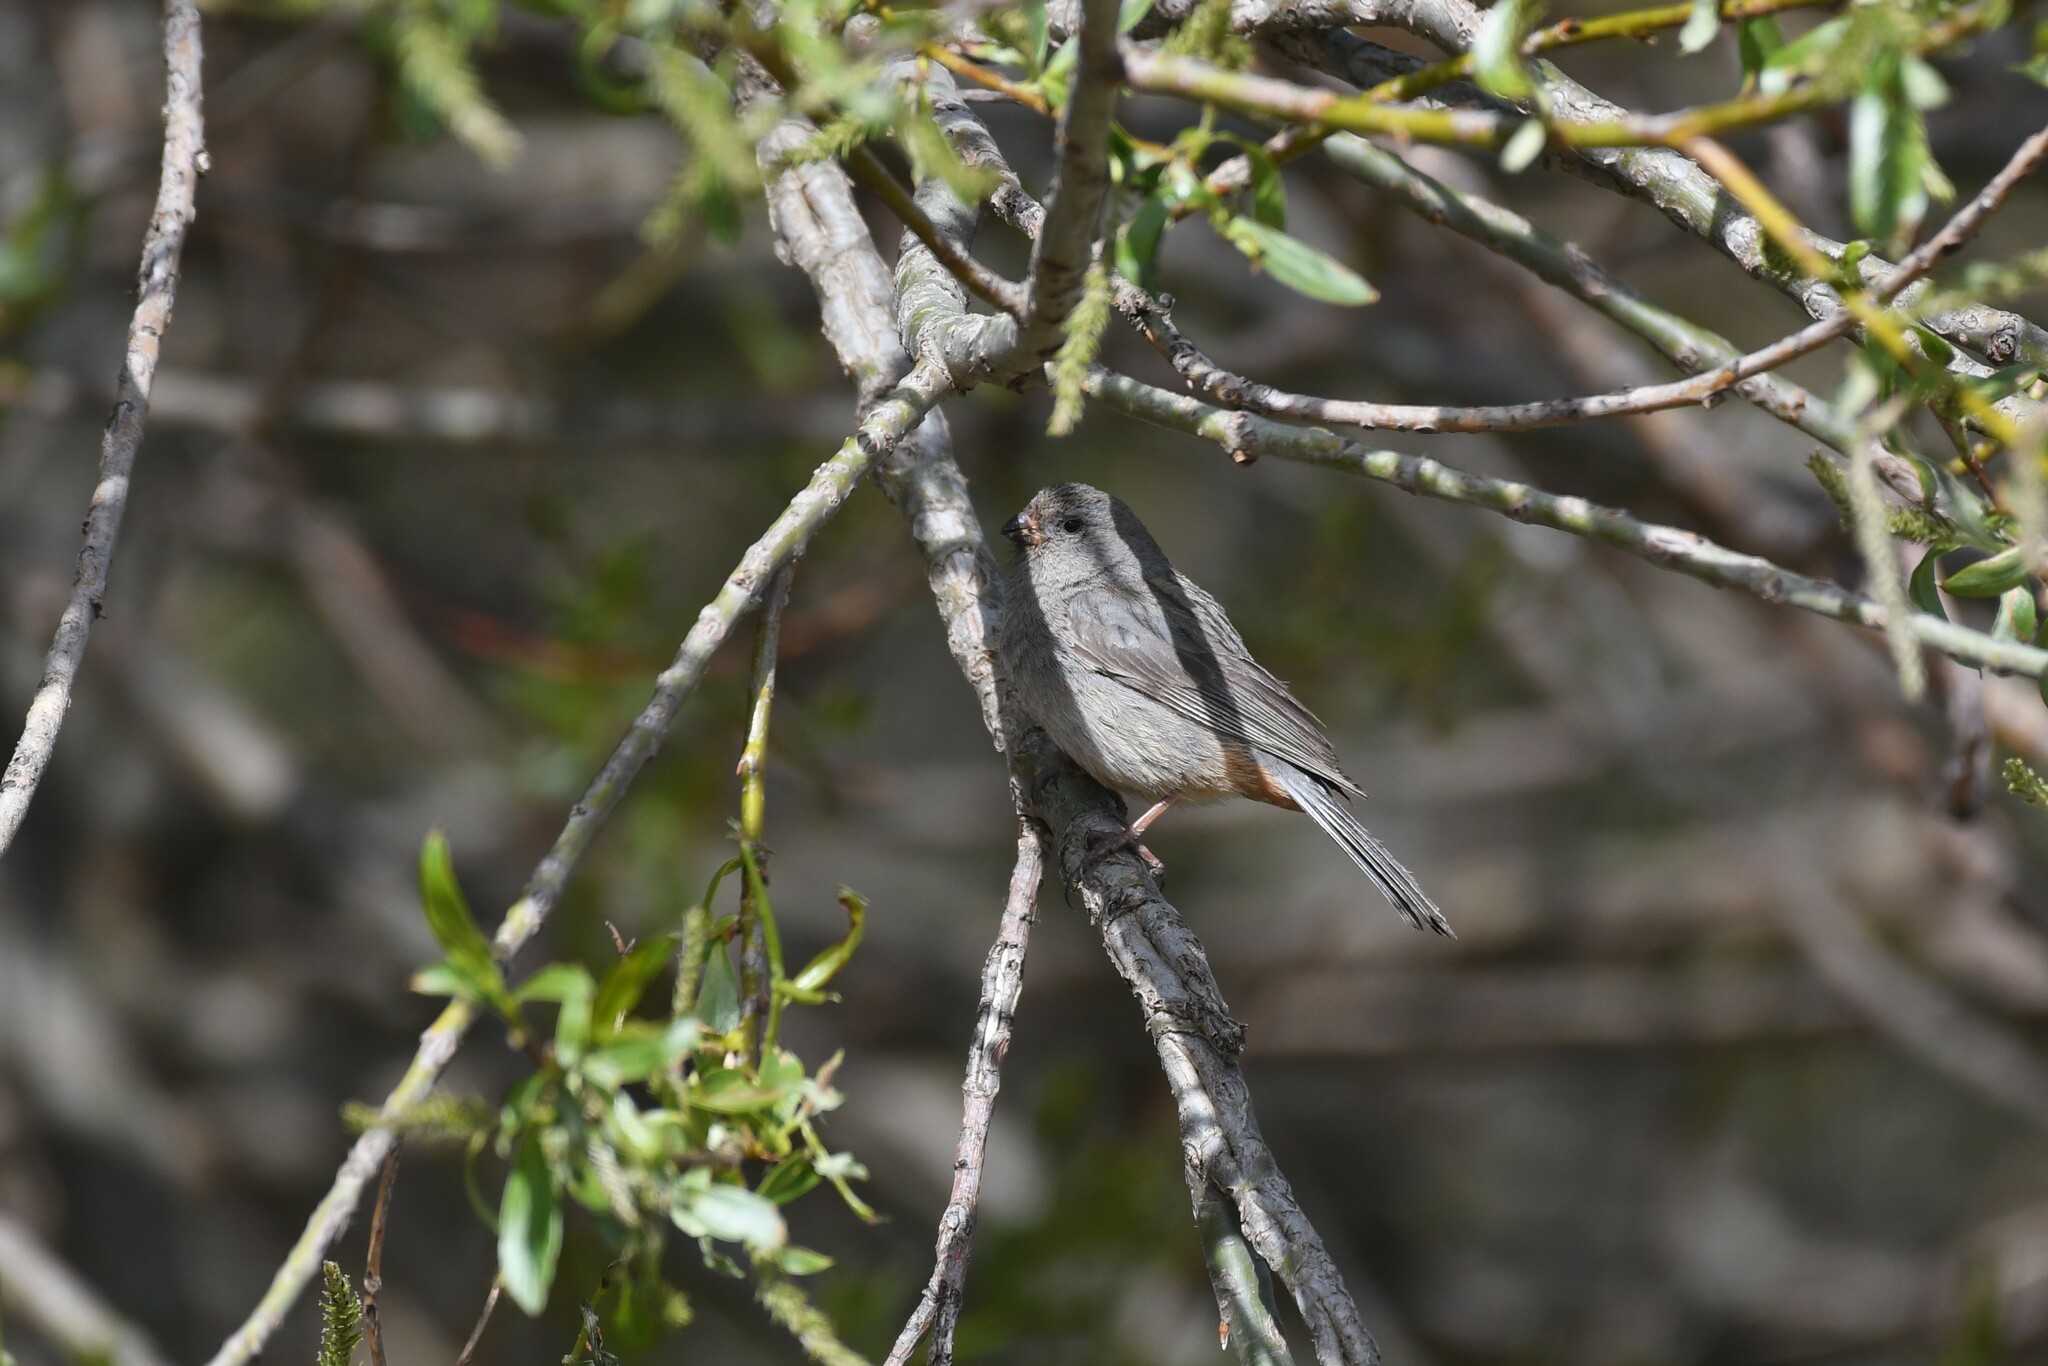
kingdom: Animalia
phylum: Chordata
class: Aves
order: Passeriformes
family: Thraupidae
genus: Catamenia
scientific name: Catamenia inornata
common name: Plain-colored seedeater
